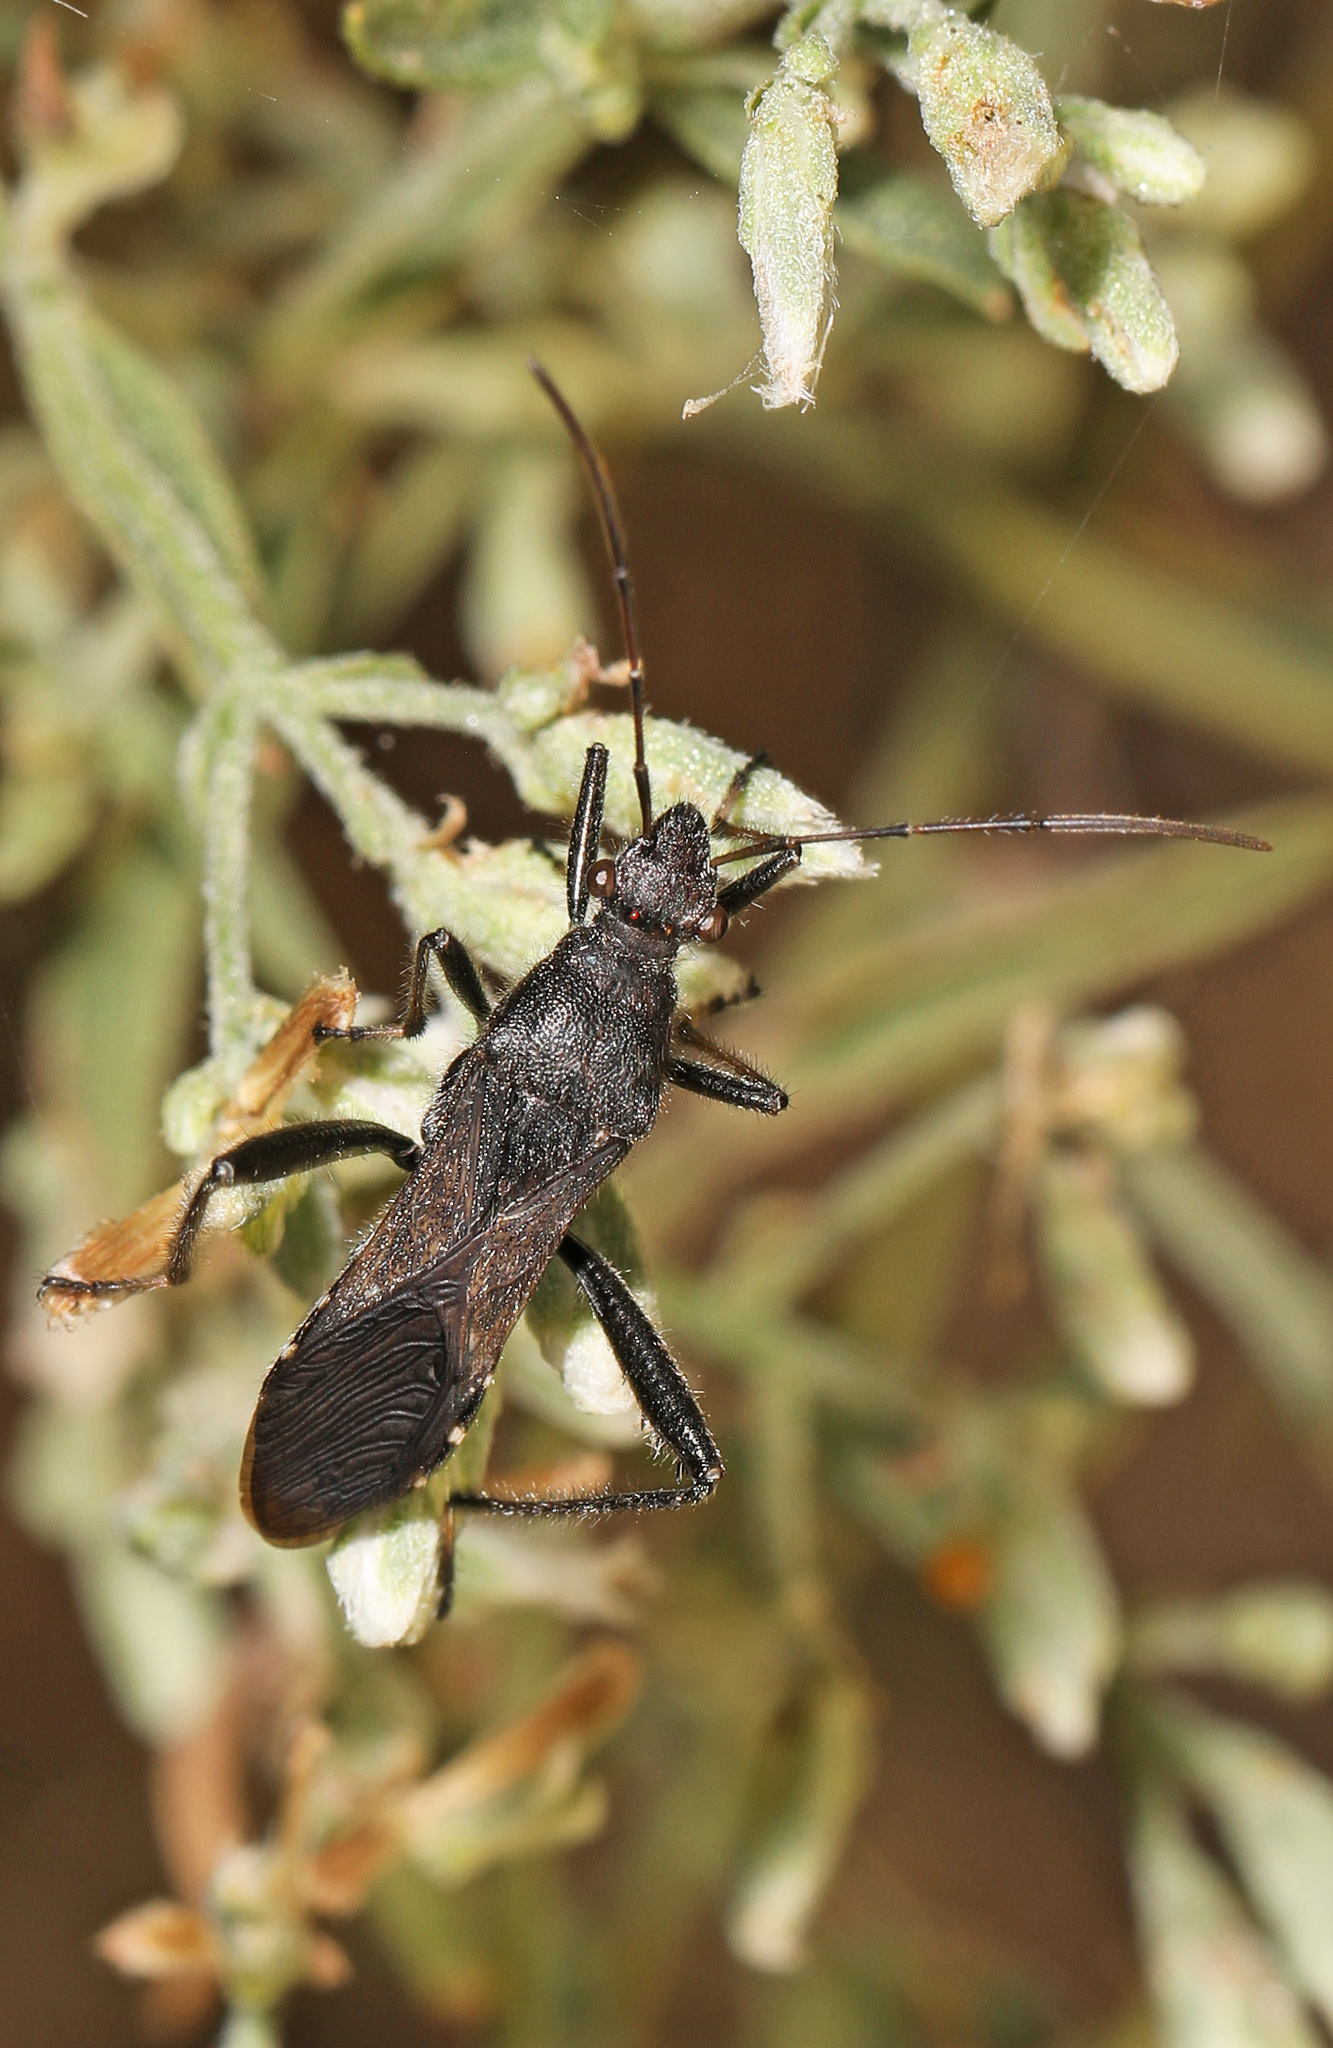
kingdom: Animalia
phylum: Arthropoda
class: Insecta
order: Hemiptera
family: Alydidae
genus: Alydus
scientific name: Alydus eurinus
